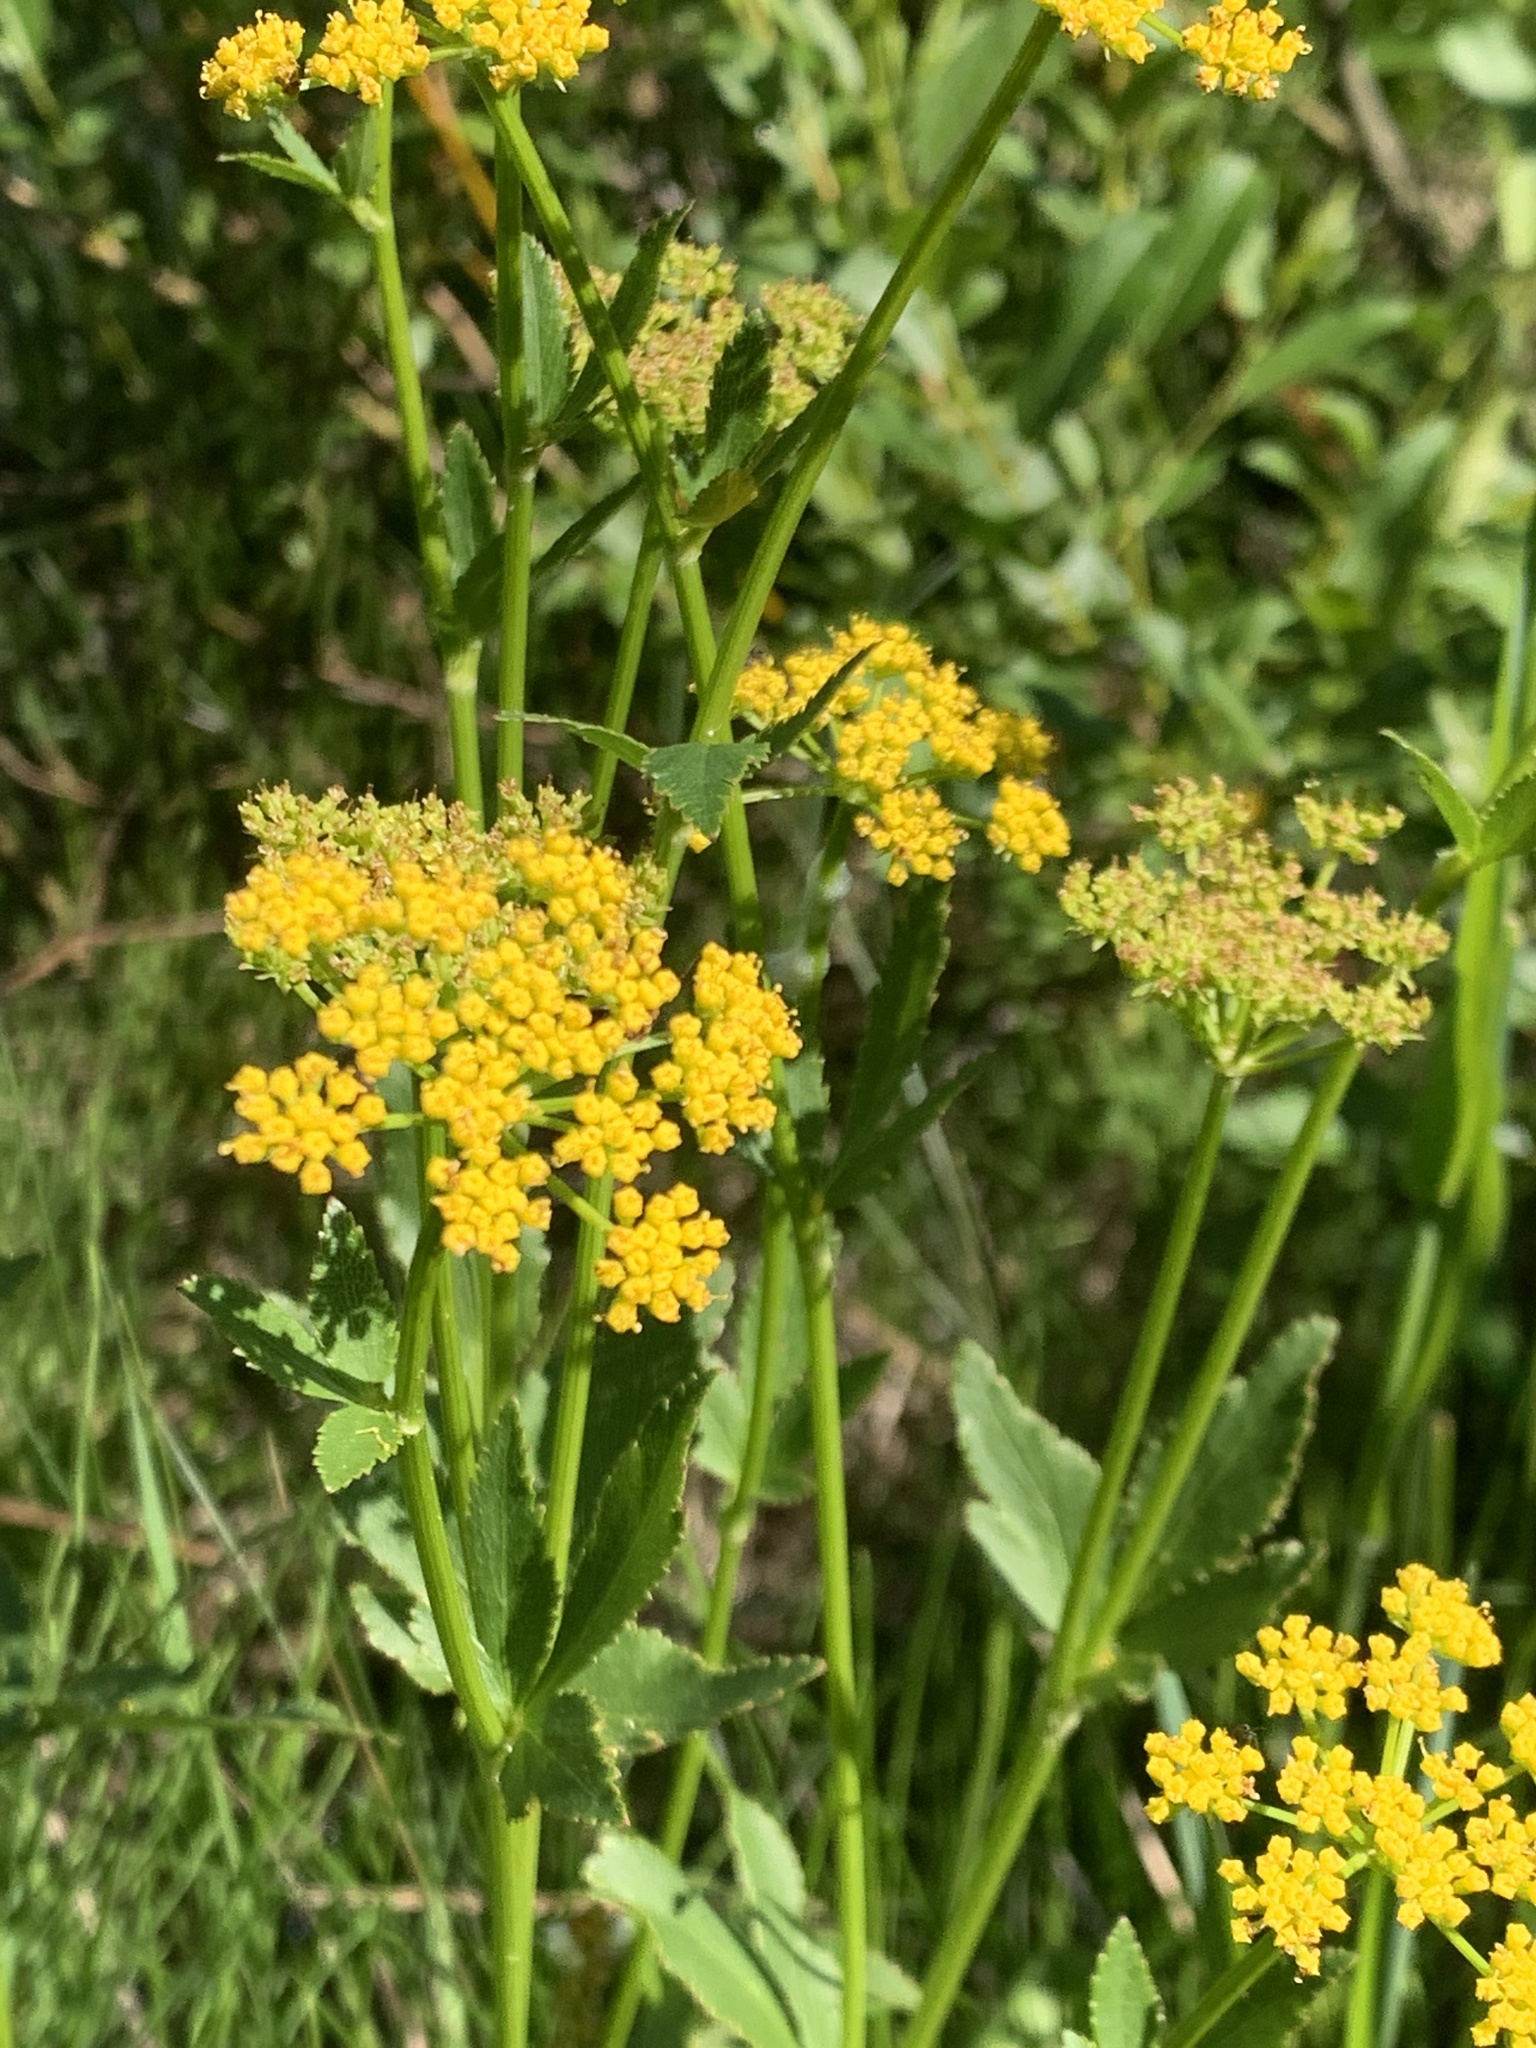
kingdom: Plantae
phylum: Tracheophyta
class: Magnoliopsida
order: Apiales
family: Apiaceae
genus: Zizia
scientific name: Zizia aptera
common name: Heart-leaved alexanders
